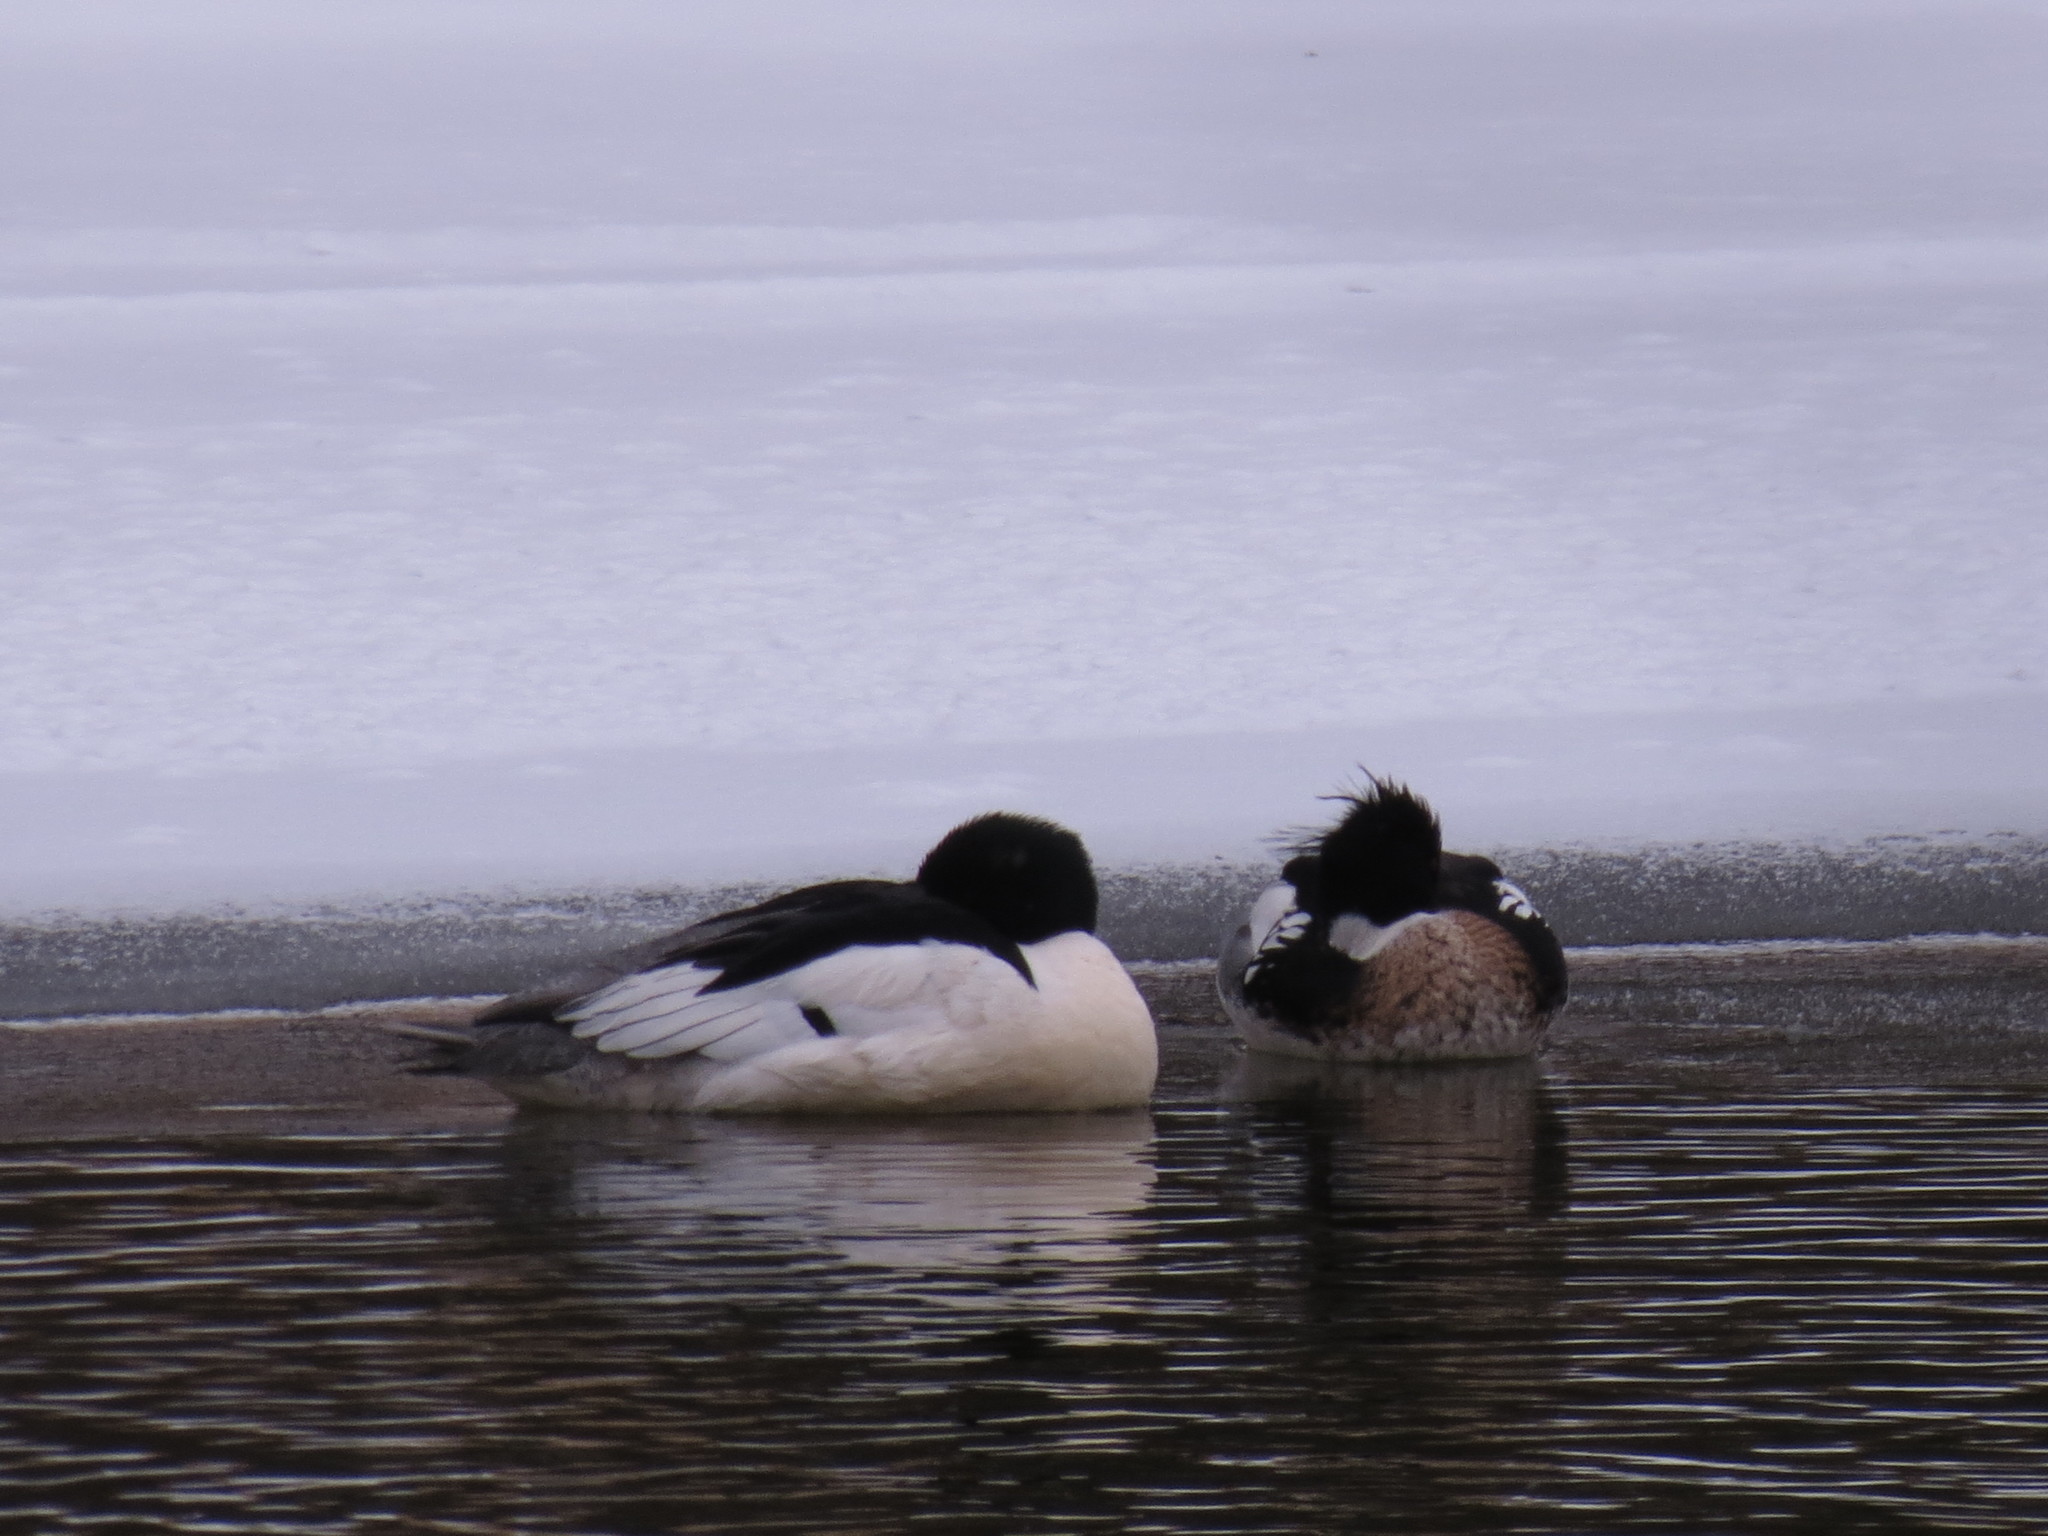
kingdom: Animalia
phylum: Chordata
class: Aves
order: Anseriformes
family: Anatidae
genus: Mergus
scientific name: Mergus merganser
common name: Common merganser
